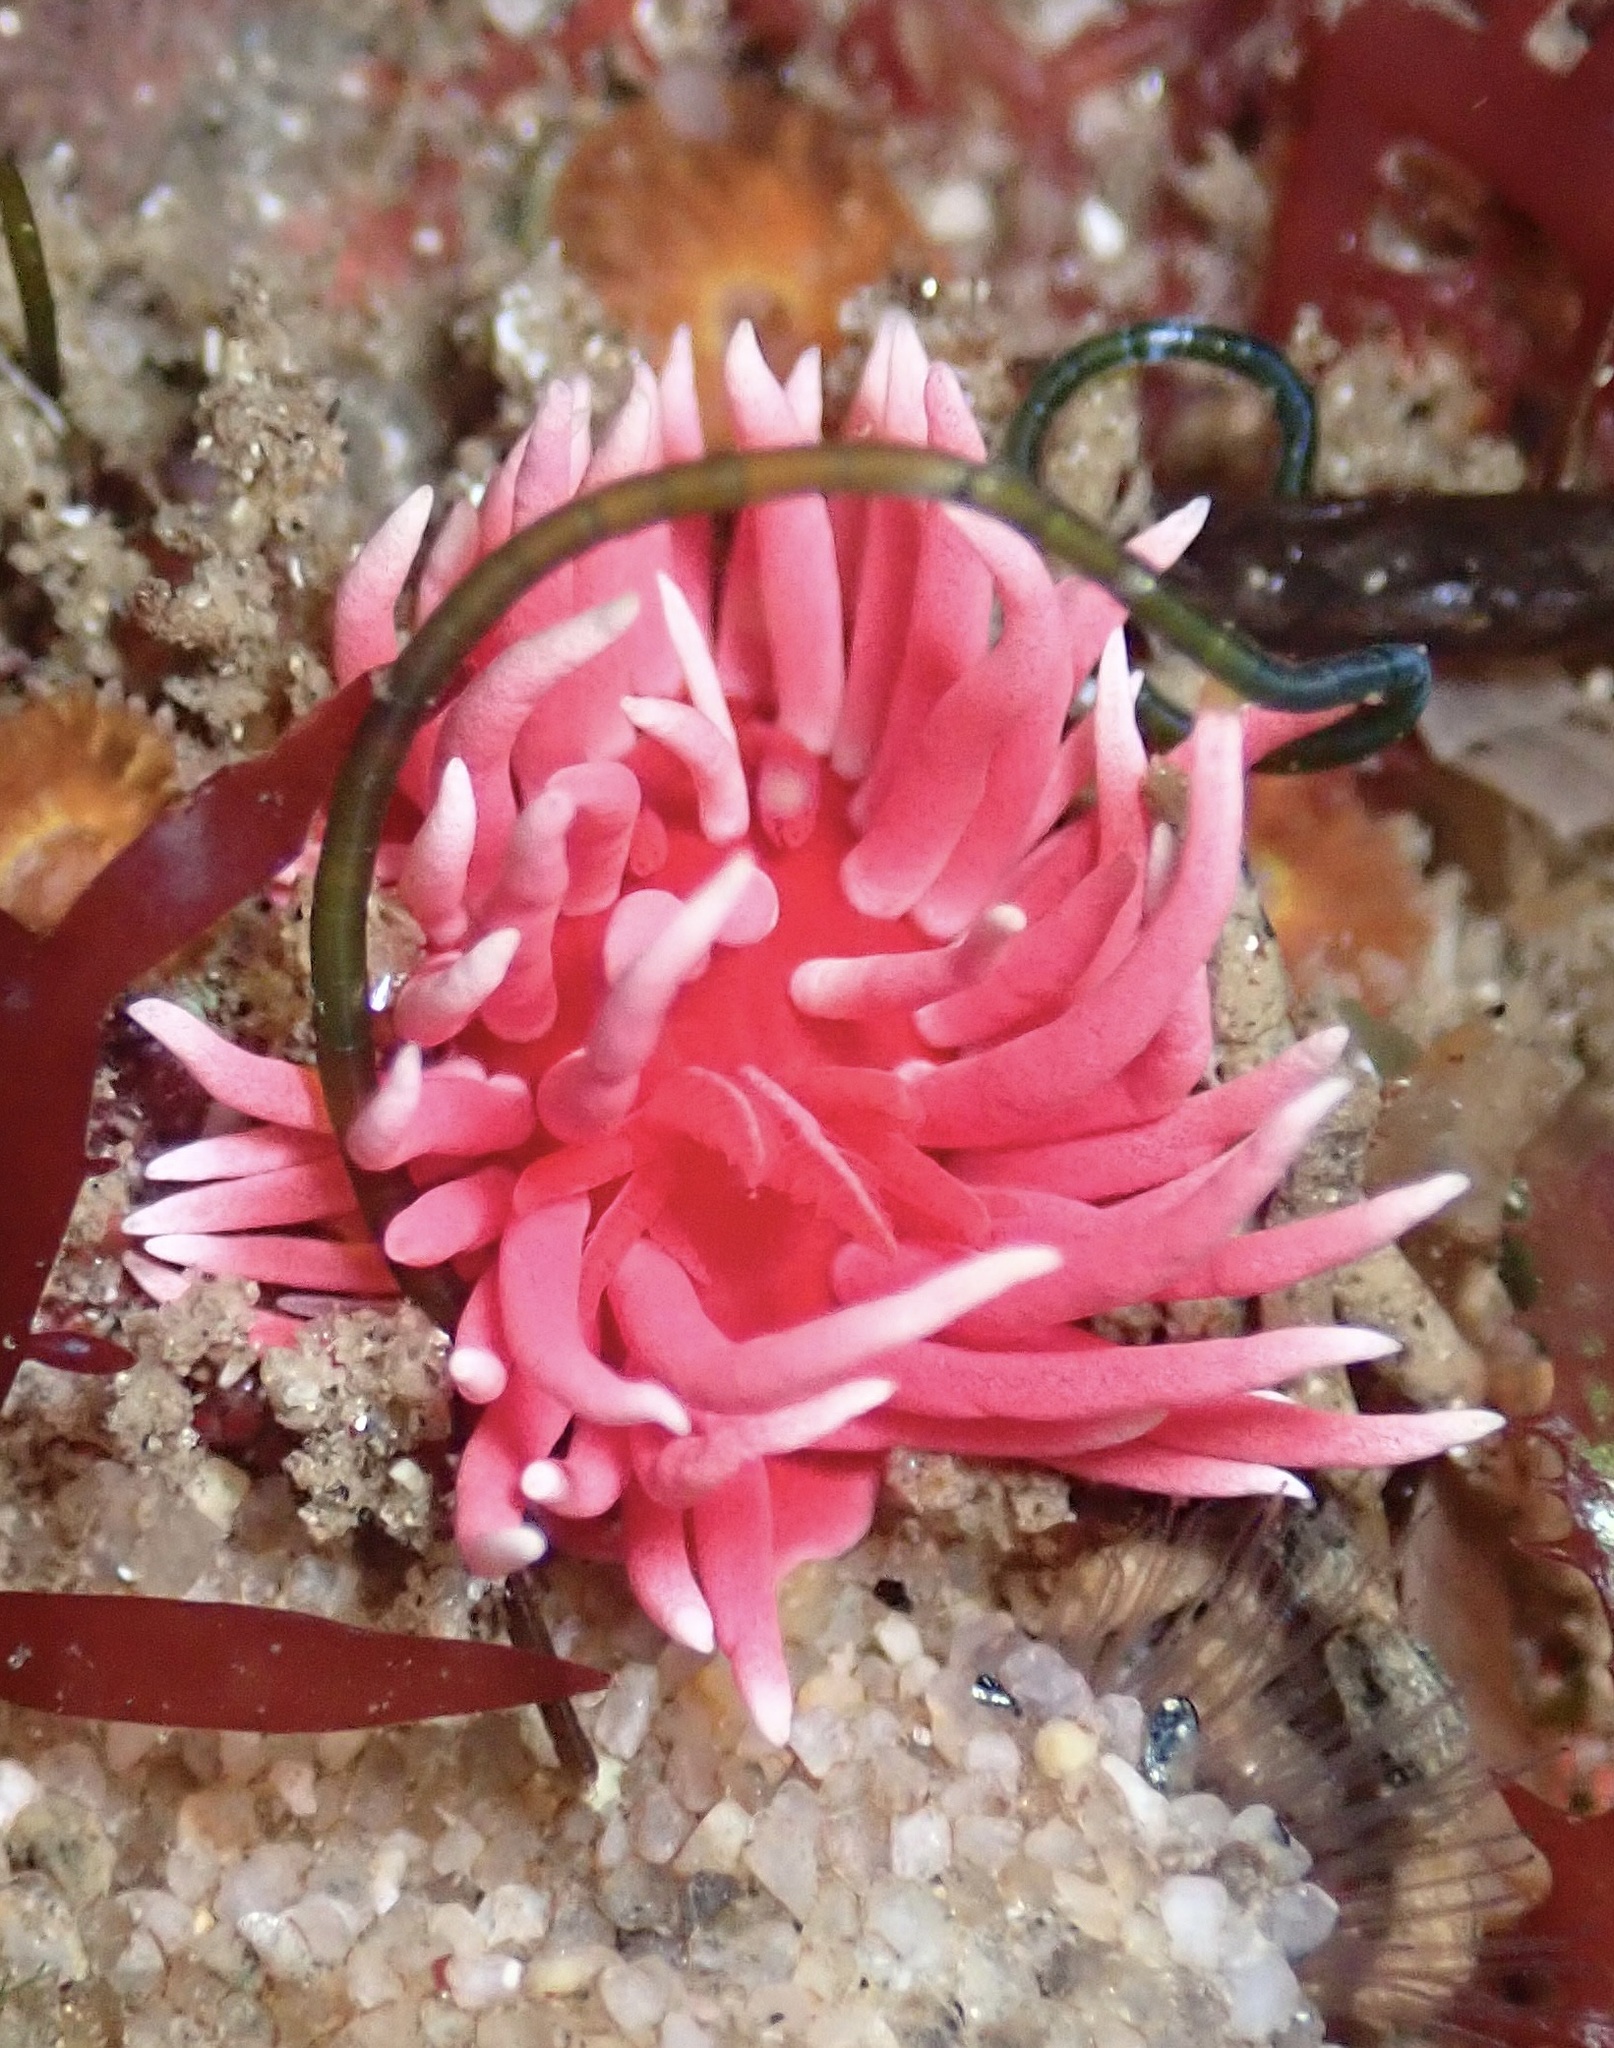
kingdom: Animalia
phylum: Mollusca
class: Gastropoda
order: Nudibranchia
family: Goniodorididae
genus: Okenia
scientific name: Okenia
